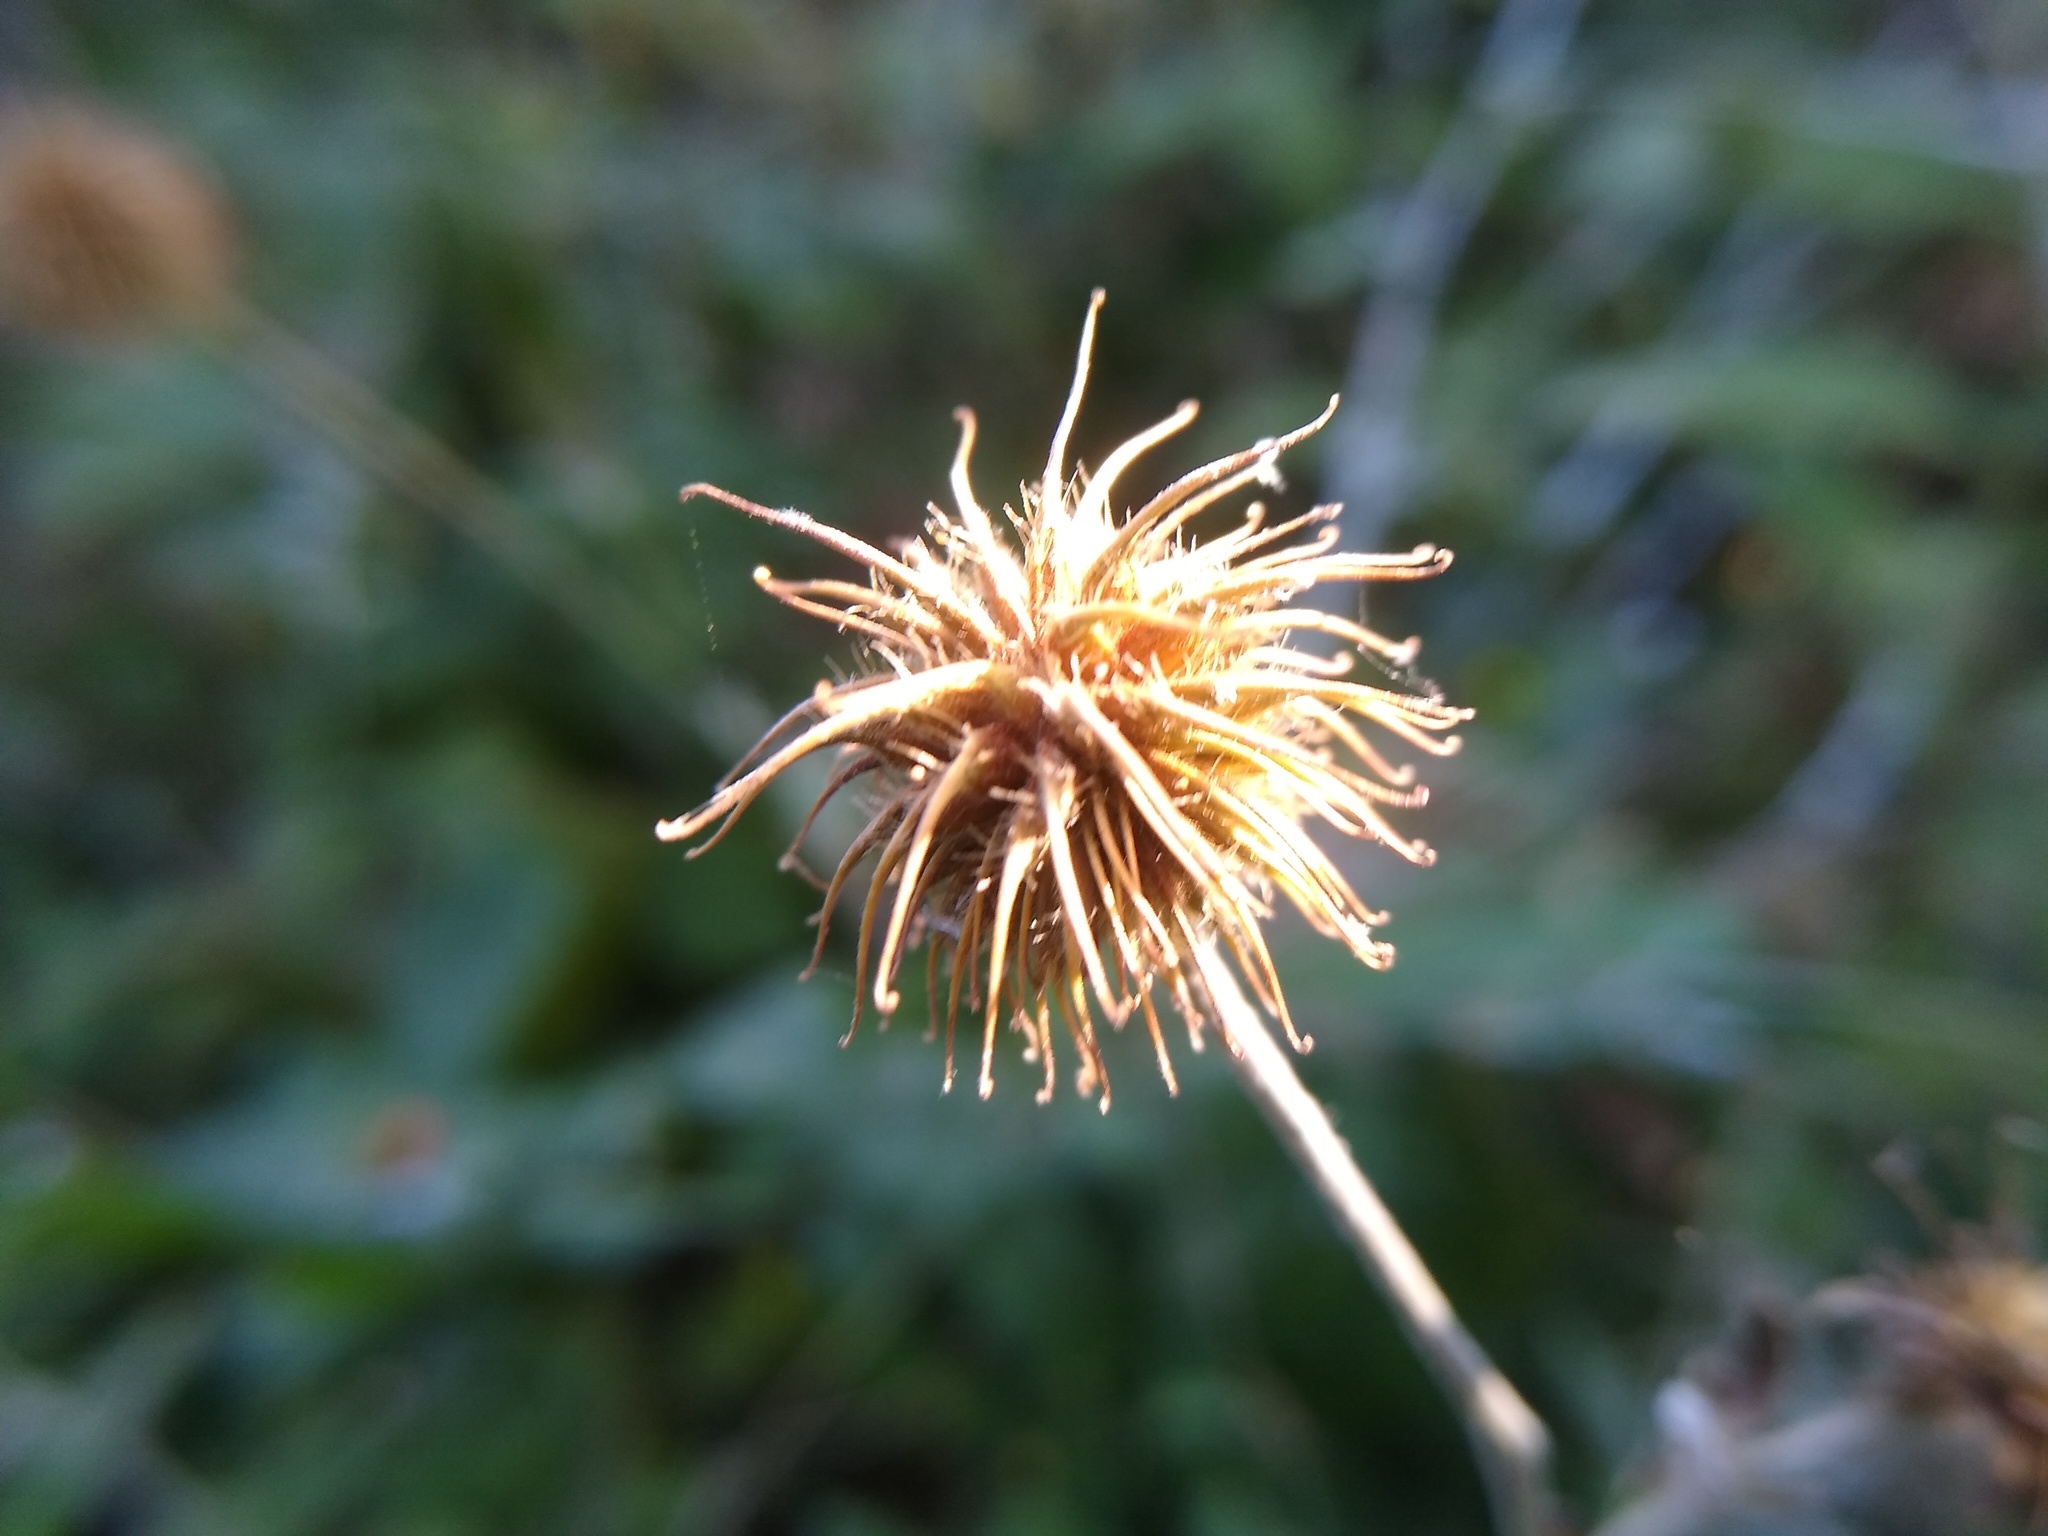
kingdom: Plantae
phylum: Tracheophyta
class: Magnoliopsida
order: Rosales
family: Rosaceae
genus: Geum
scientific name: Geum urbanum
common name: Wood avens
